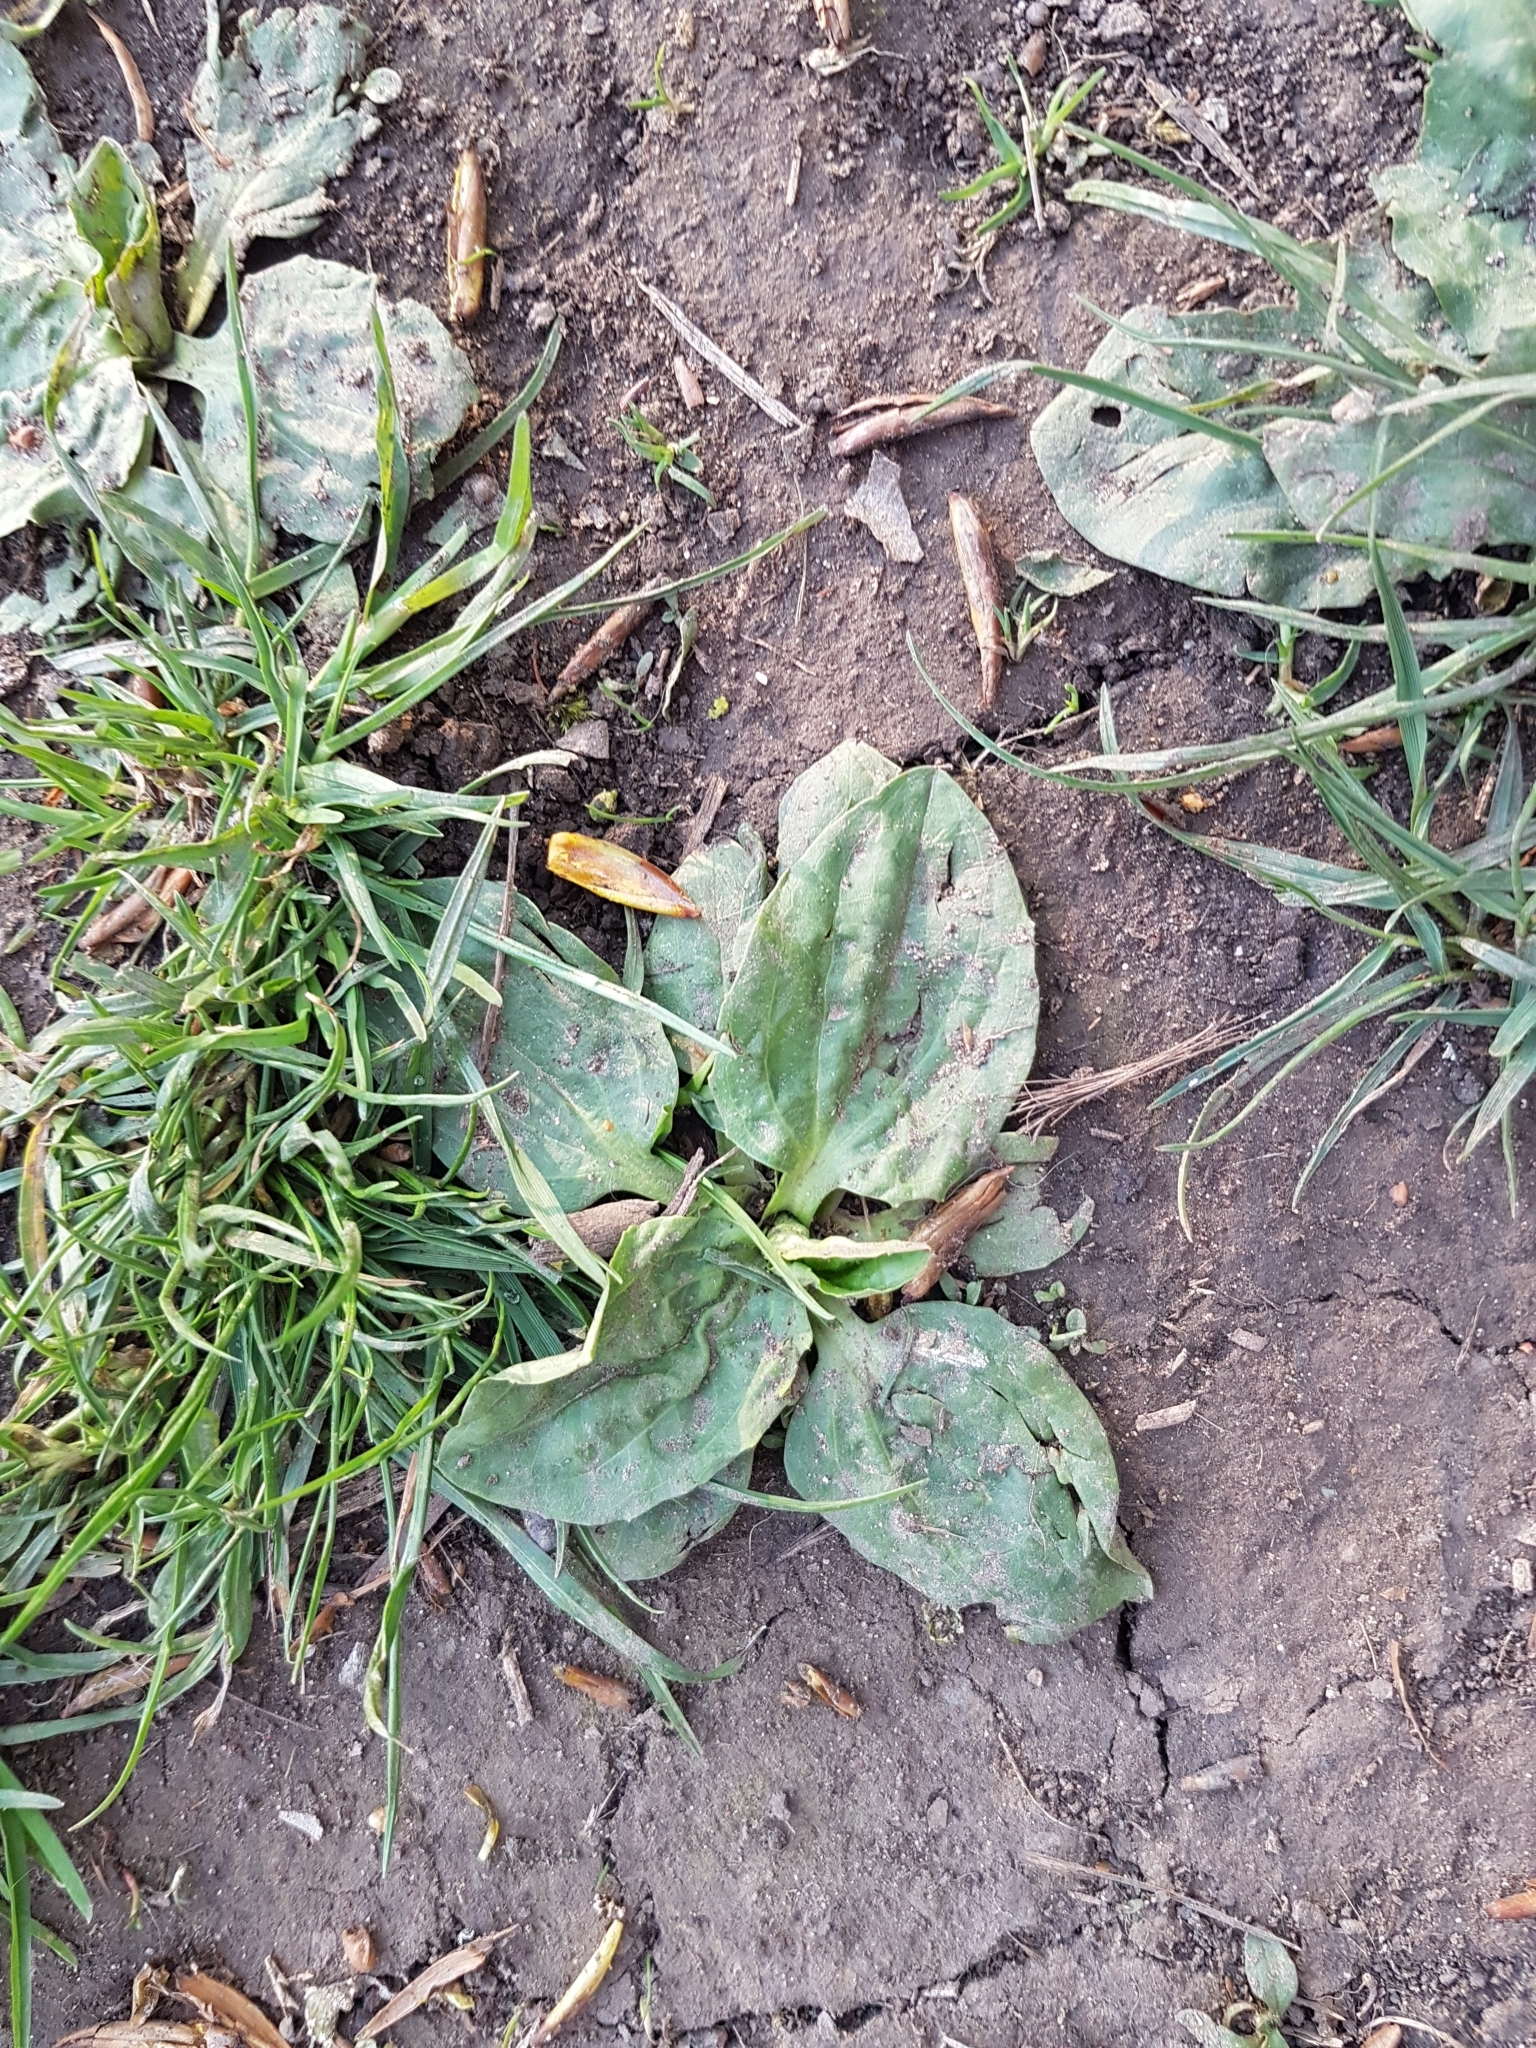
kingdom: Plantae
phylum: Tracheophyta
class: Magnoliopsida
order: Lamiales
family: Plantaginaceae
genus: Plantago
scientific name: Plantago major
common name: Common plantain
